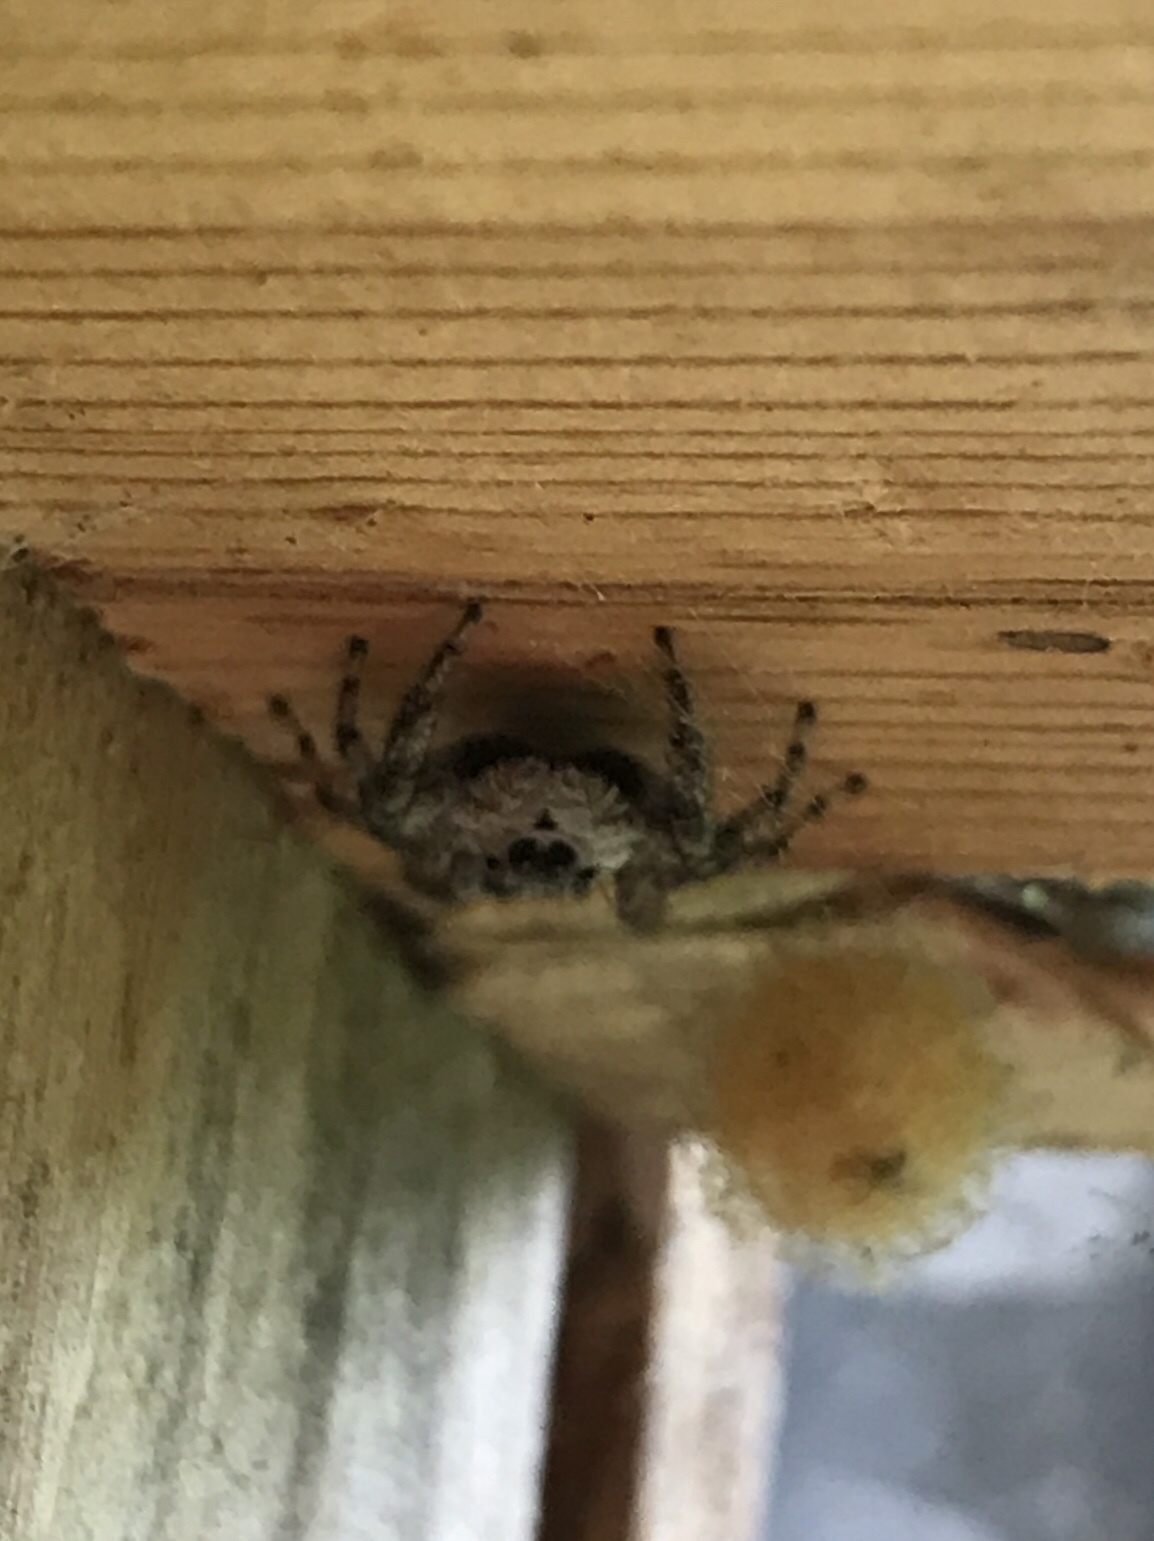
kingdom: Animalia
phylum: Arthropoda
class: Arachnida
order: Araneae
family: Salticidae
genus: Platycryptus
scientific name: Platycryptus undatus
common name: Tan jumping spider
